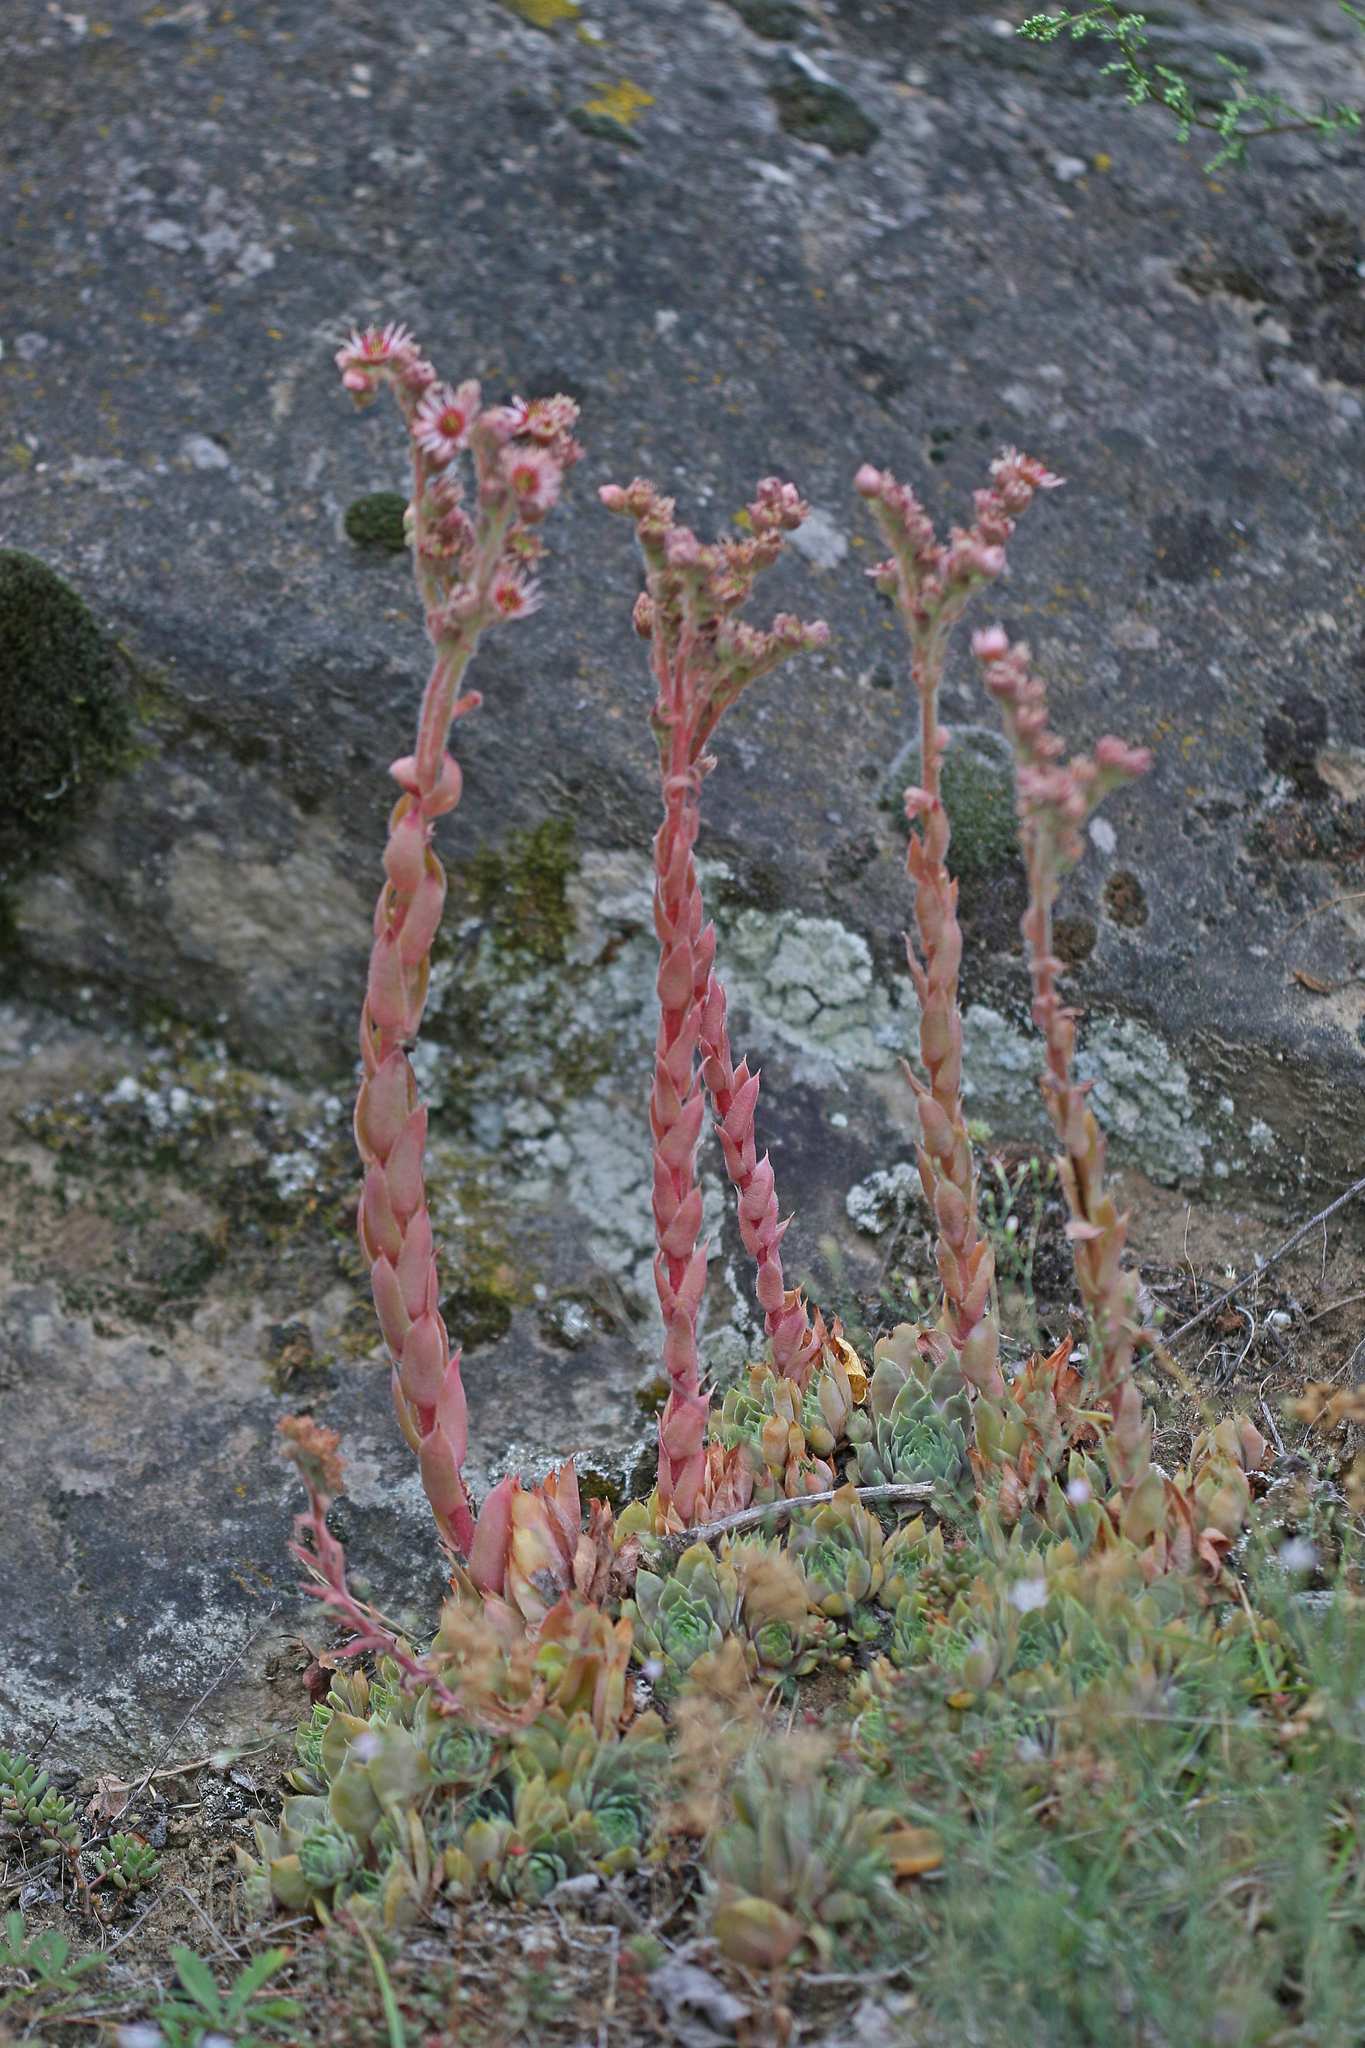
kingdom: Plantae
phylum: Tracheophyta
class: Magnoliopsida
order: Saxifragales
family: Crassulaceae
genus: Sempervivum
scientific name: Sempervivum tectorum
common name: House-leek
